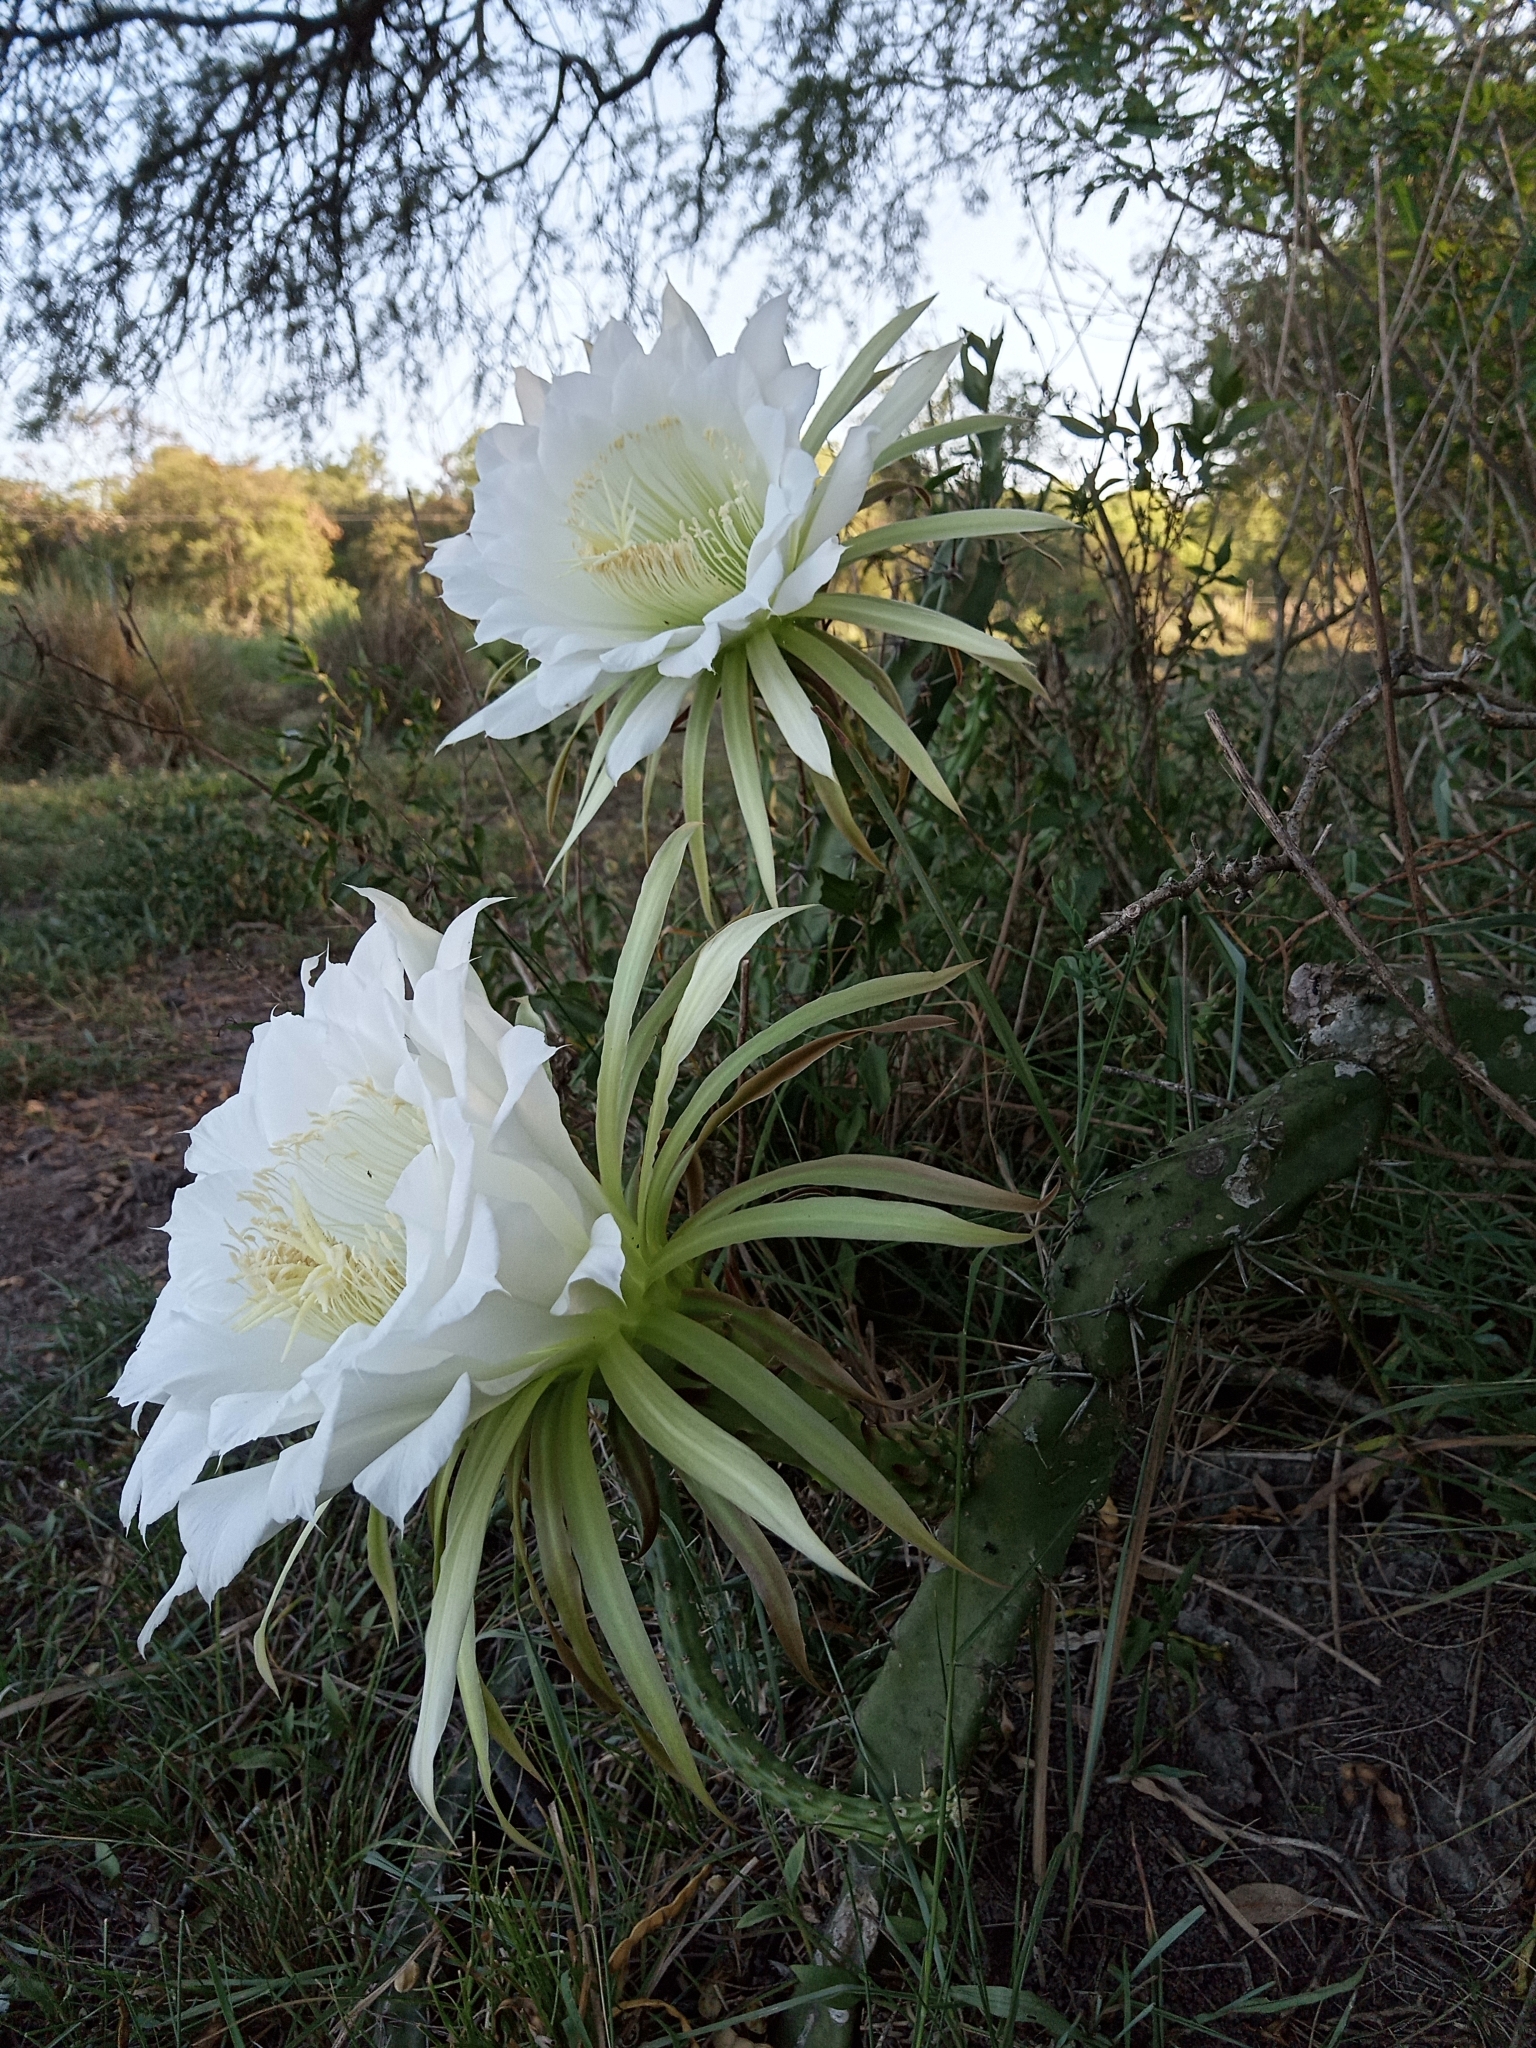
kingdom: Plantae
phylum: Tracheophyta
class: Magnoliopsida
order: Caryophyllales
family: Cactaceae
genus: Harrisia
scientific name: Harrisia pomanensis
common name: Midnight-lady
